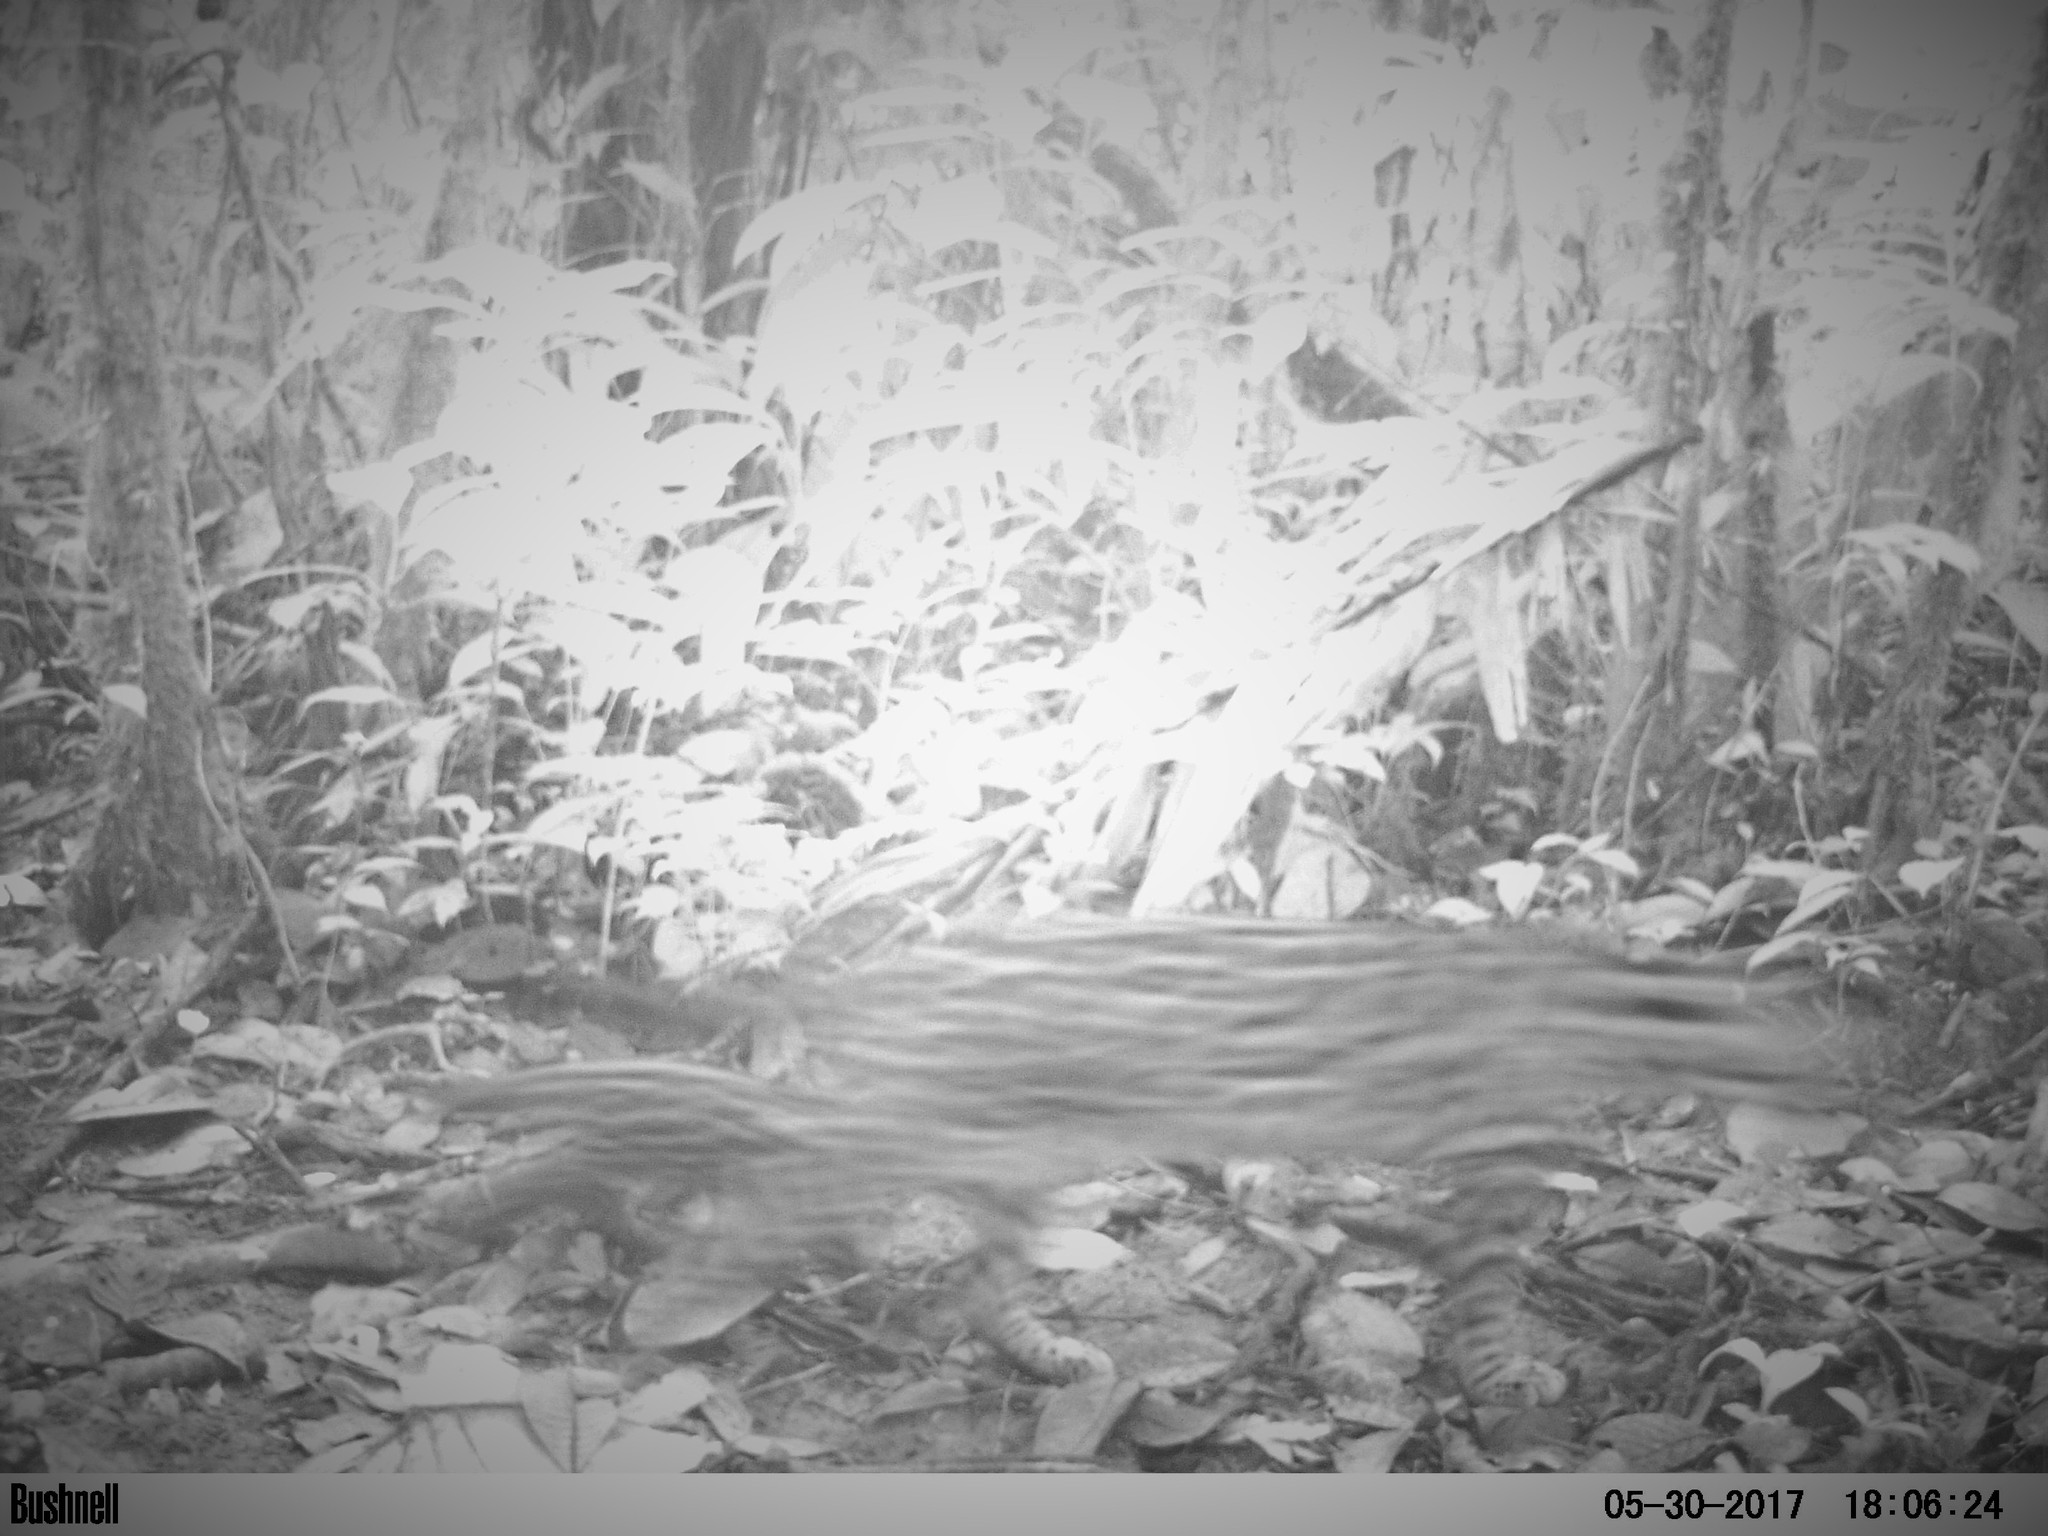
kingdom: Animalia
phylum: Chordata
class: Mammalia
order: Carnivora
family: Felidae
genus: Leopardus
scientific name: Leopardus pardalis
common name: Ocelot
